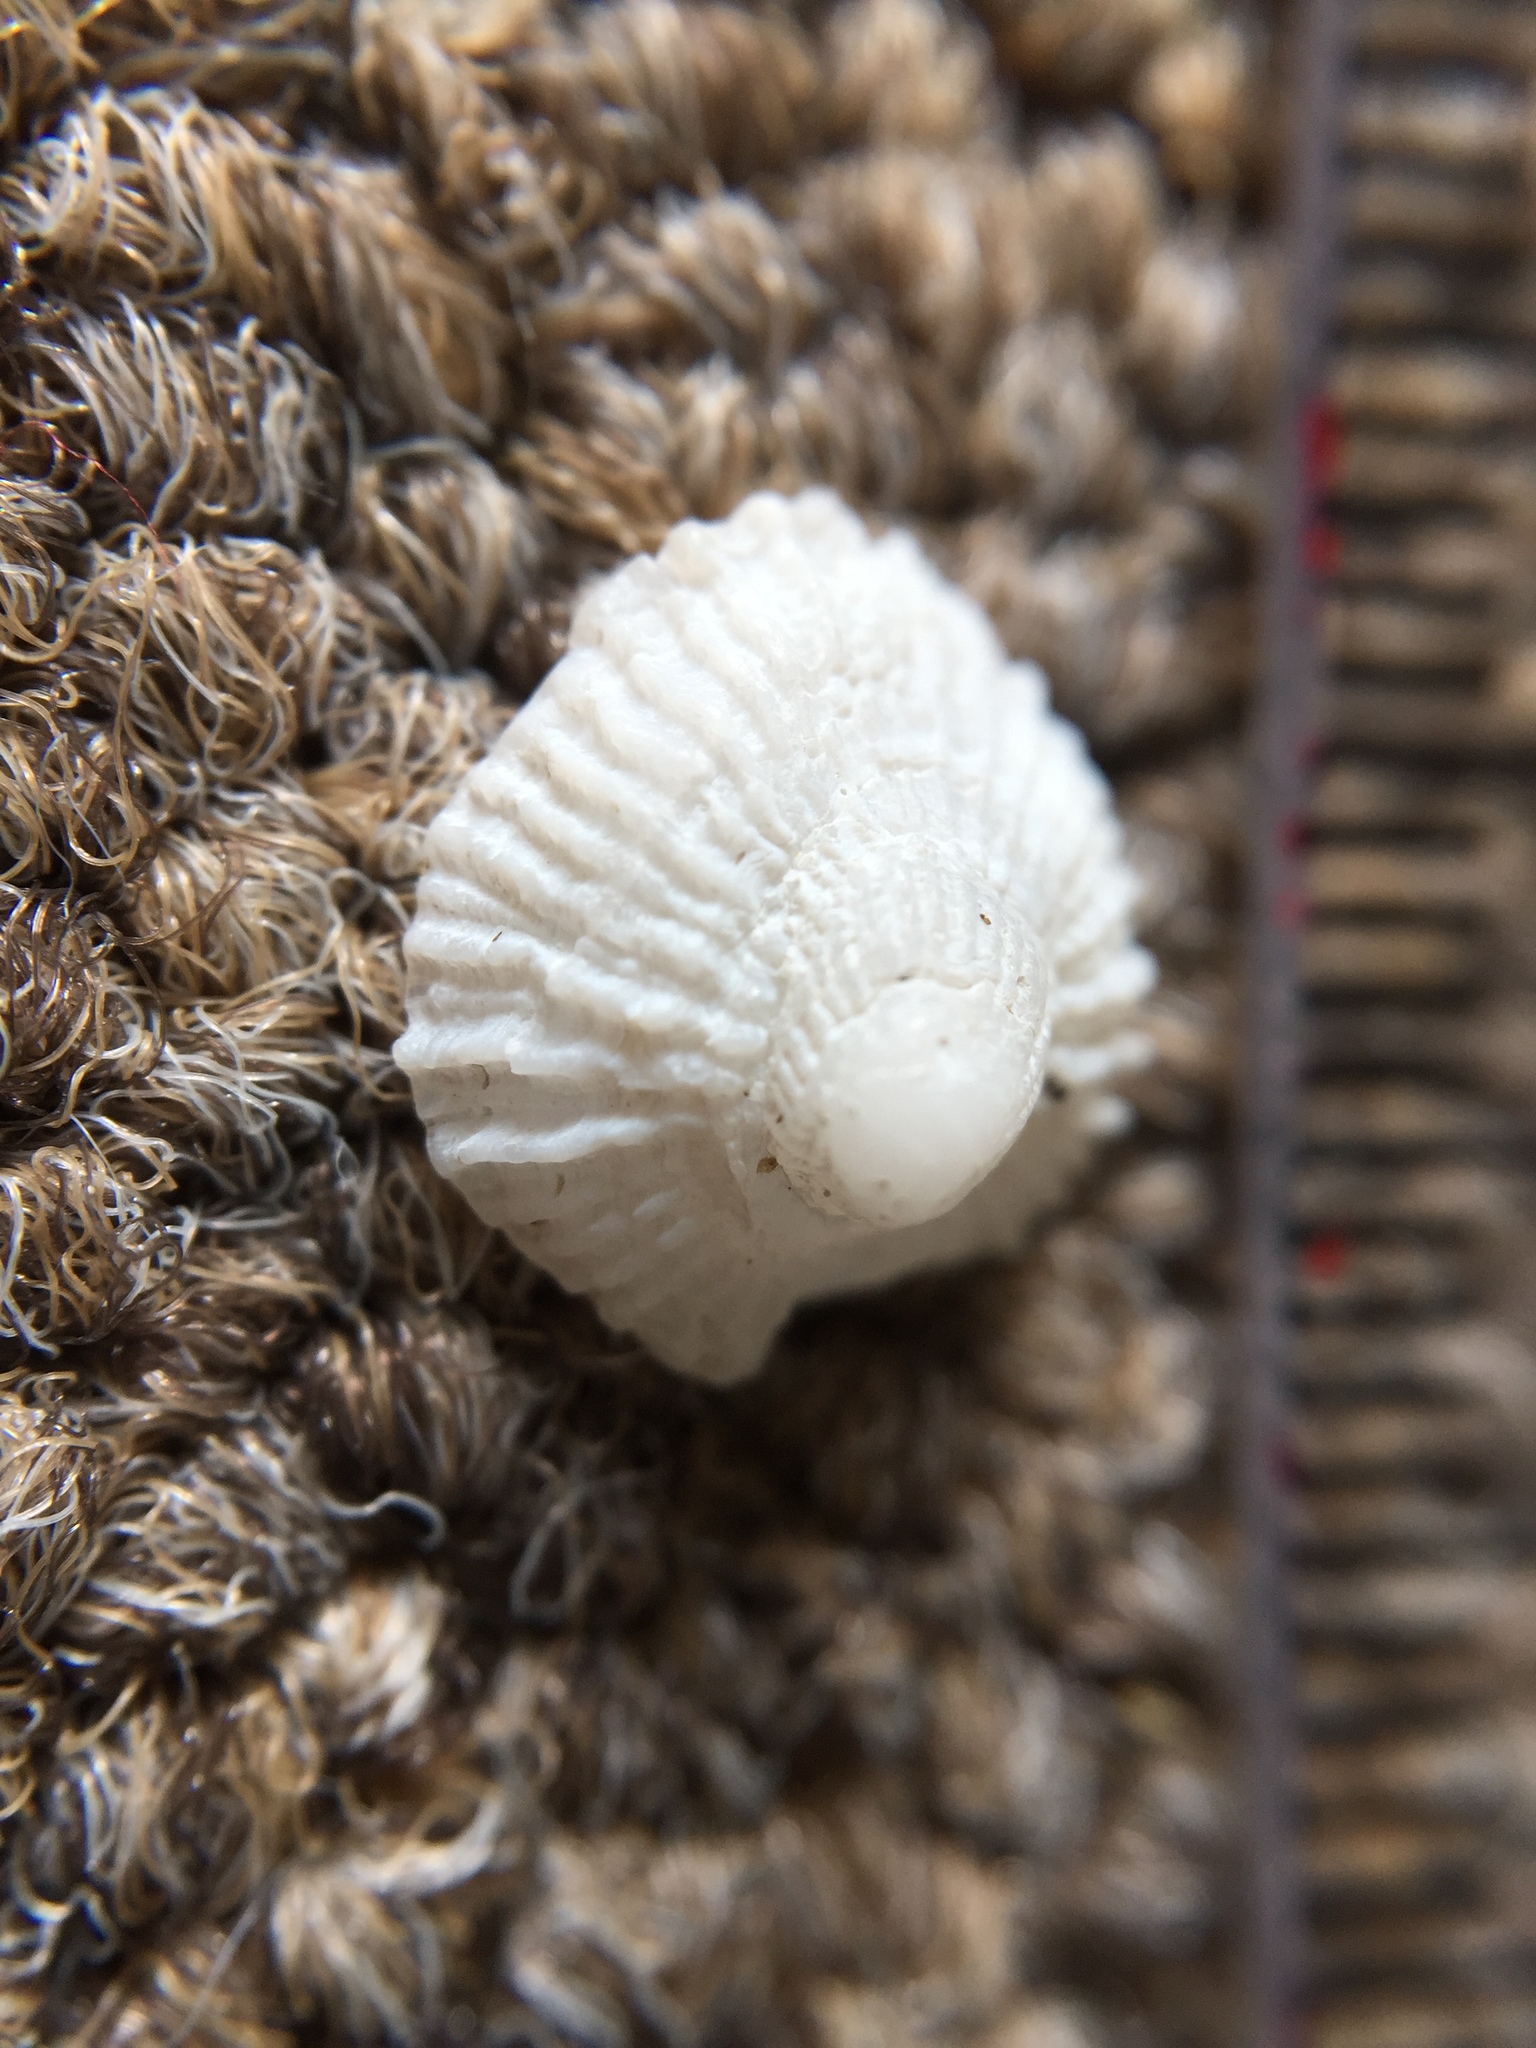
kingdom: Animalia
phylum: Mollusca
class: Gastropoda
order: Ellobiida
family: Trimusculidae
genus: Trimusculus
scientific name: Trimusculus conicus
